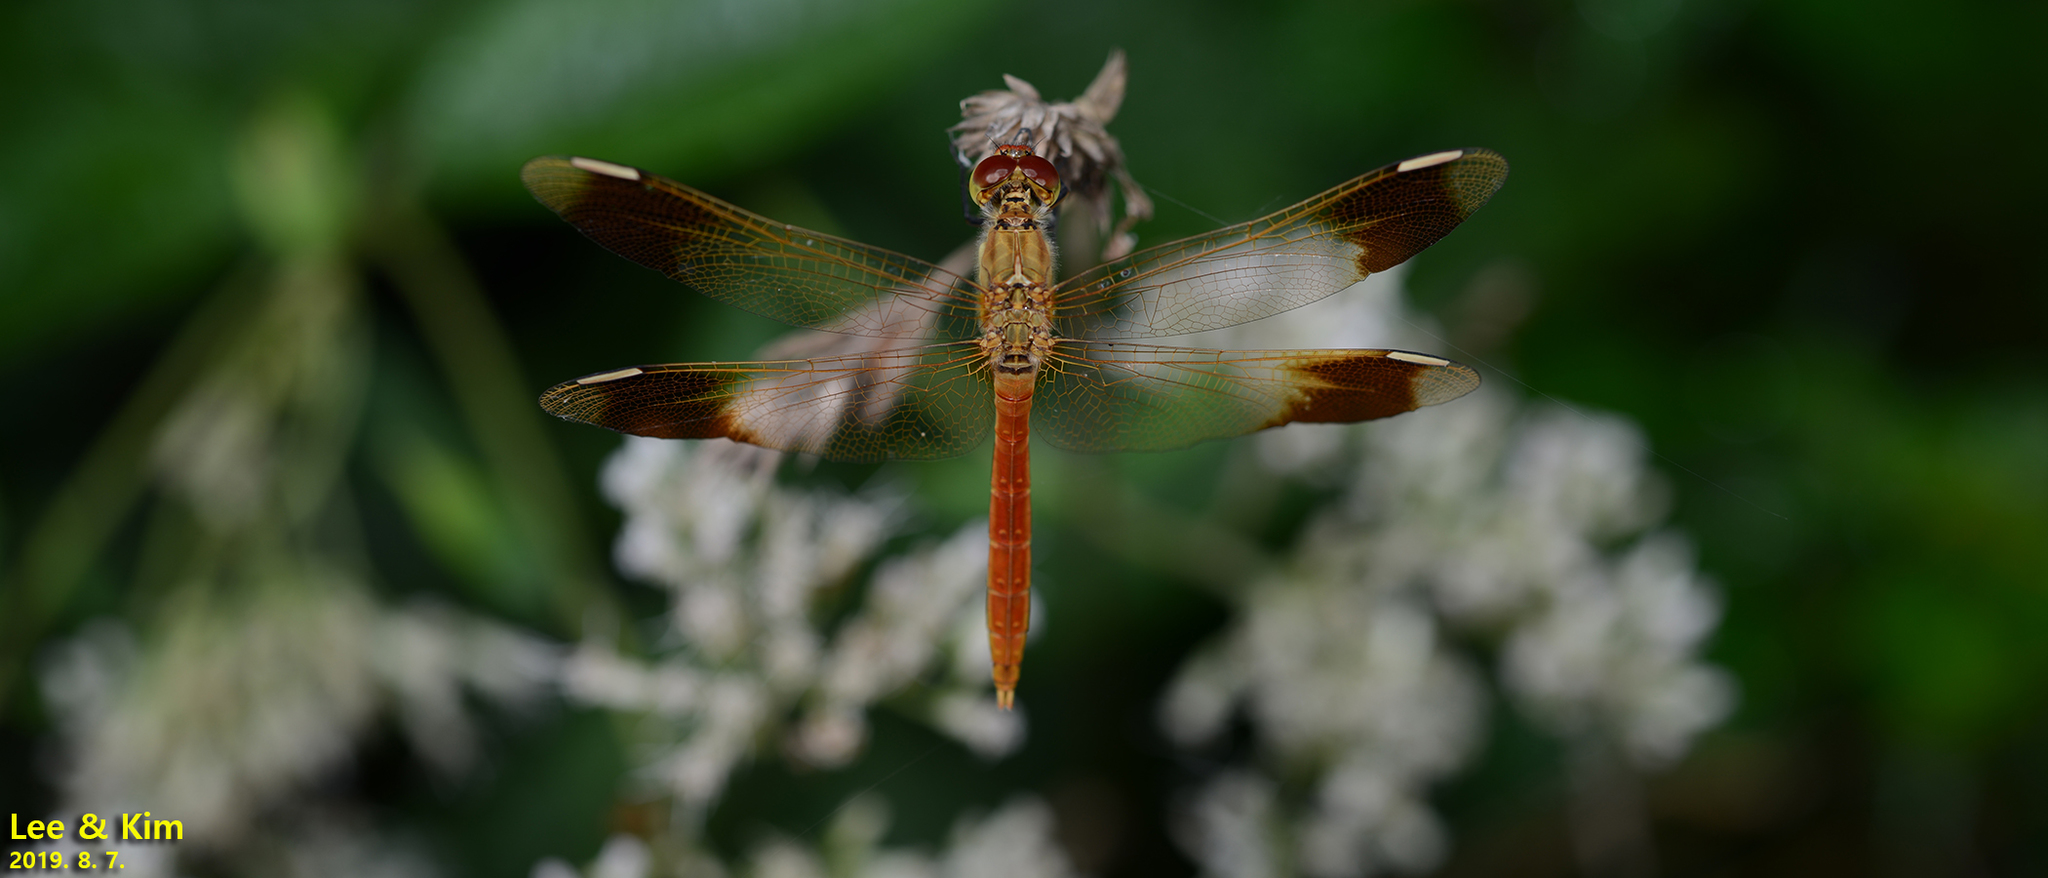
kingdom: Animalia
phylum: Arthropoda
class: Insecta
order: Odonata
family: Libellulidae
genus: Sympetrum
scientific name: Sympetrum pedemontanum
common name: Banded darter
